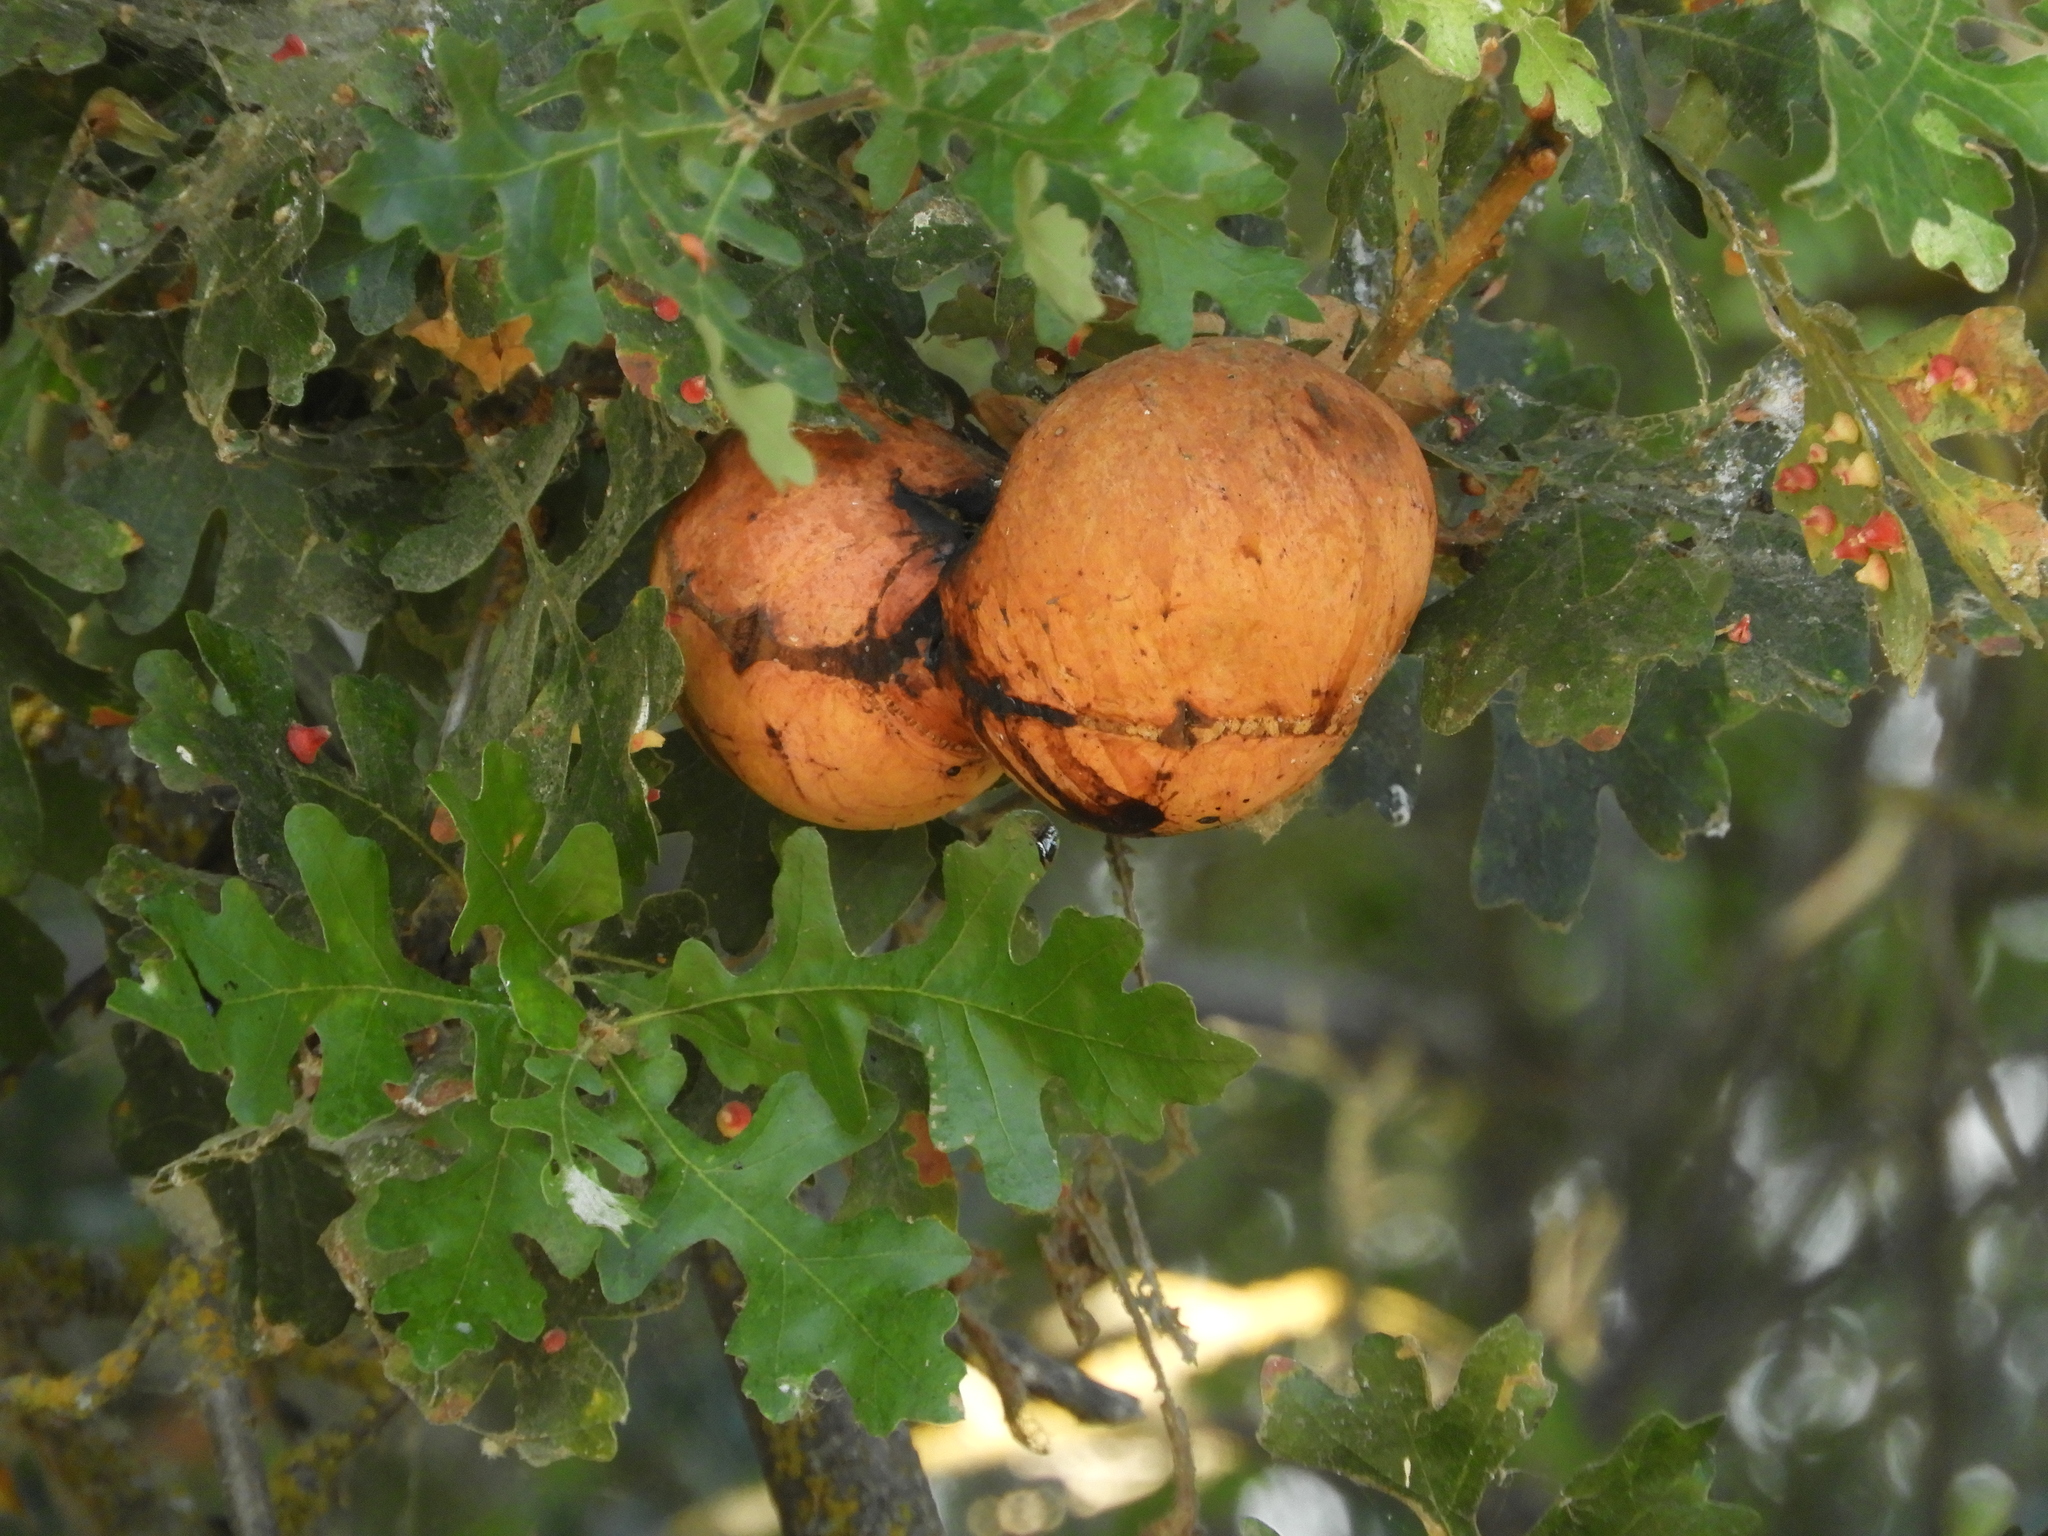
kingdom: Animalia
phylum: Arthropoda
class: Insecta
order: Hymenoptera
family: Cynipidae
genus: Andricus
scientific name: Andricus quercuscalifornicus
